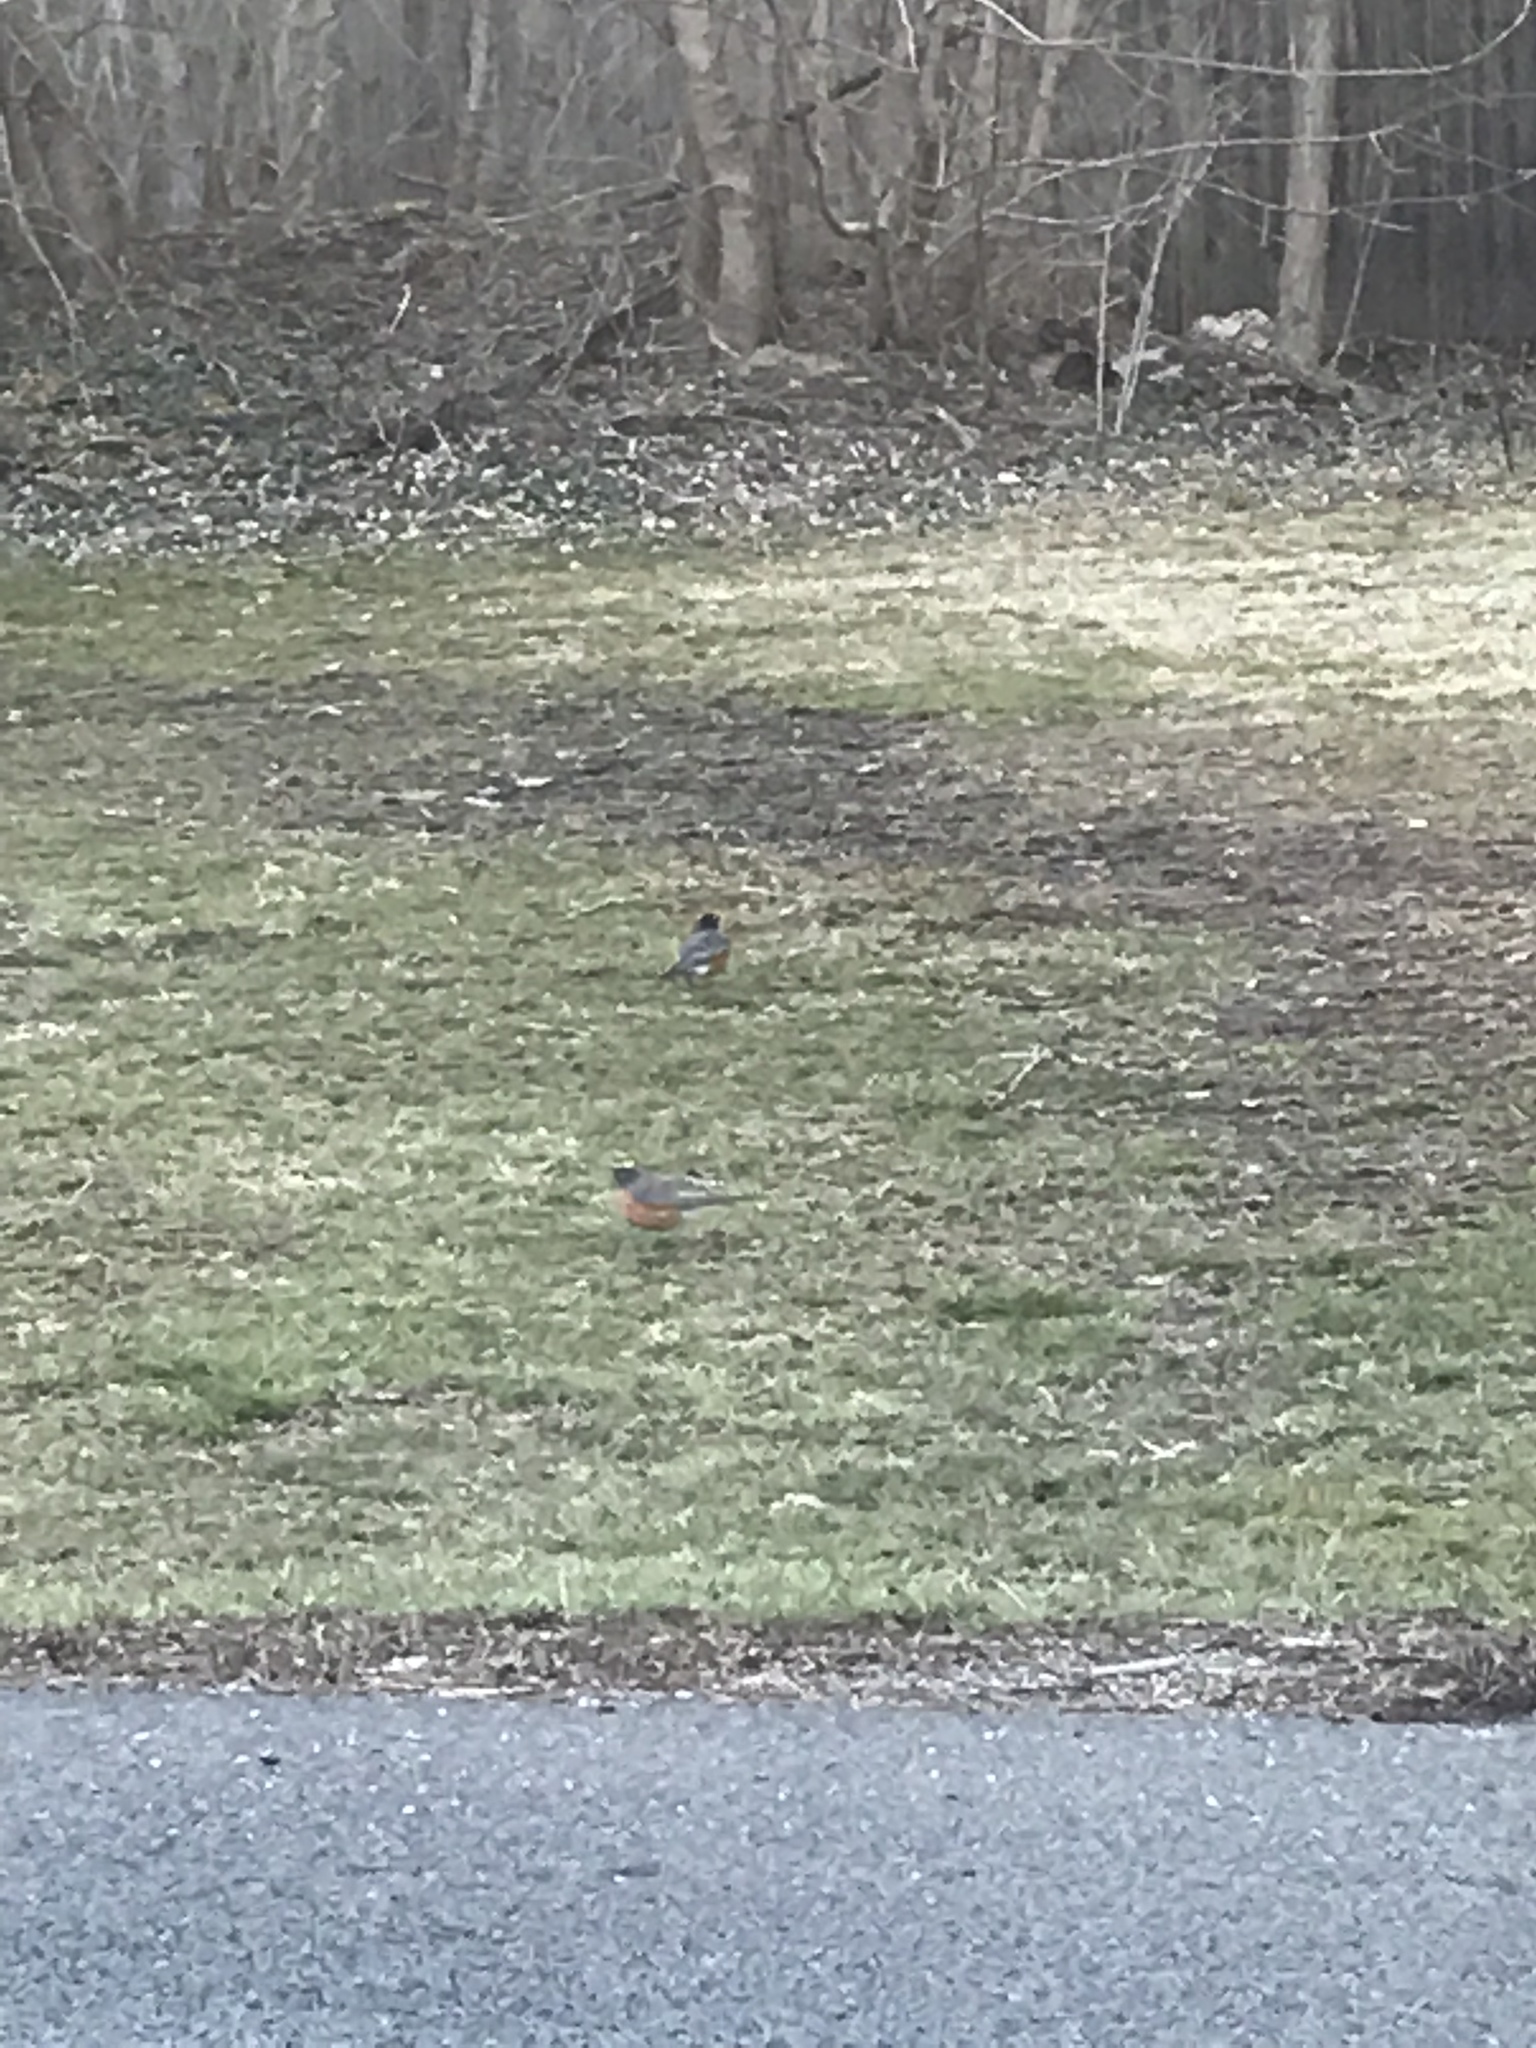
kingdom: Animalia
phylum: Chordata
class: Aves
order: Passeriformes
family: Turdidae
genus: Turdus
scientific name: Turdus migratorius
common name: American robin
